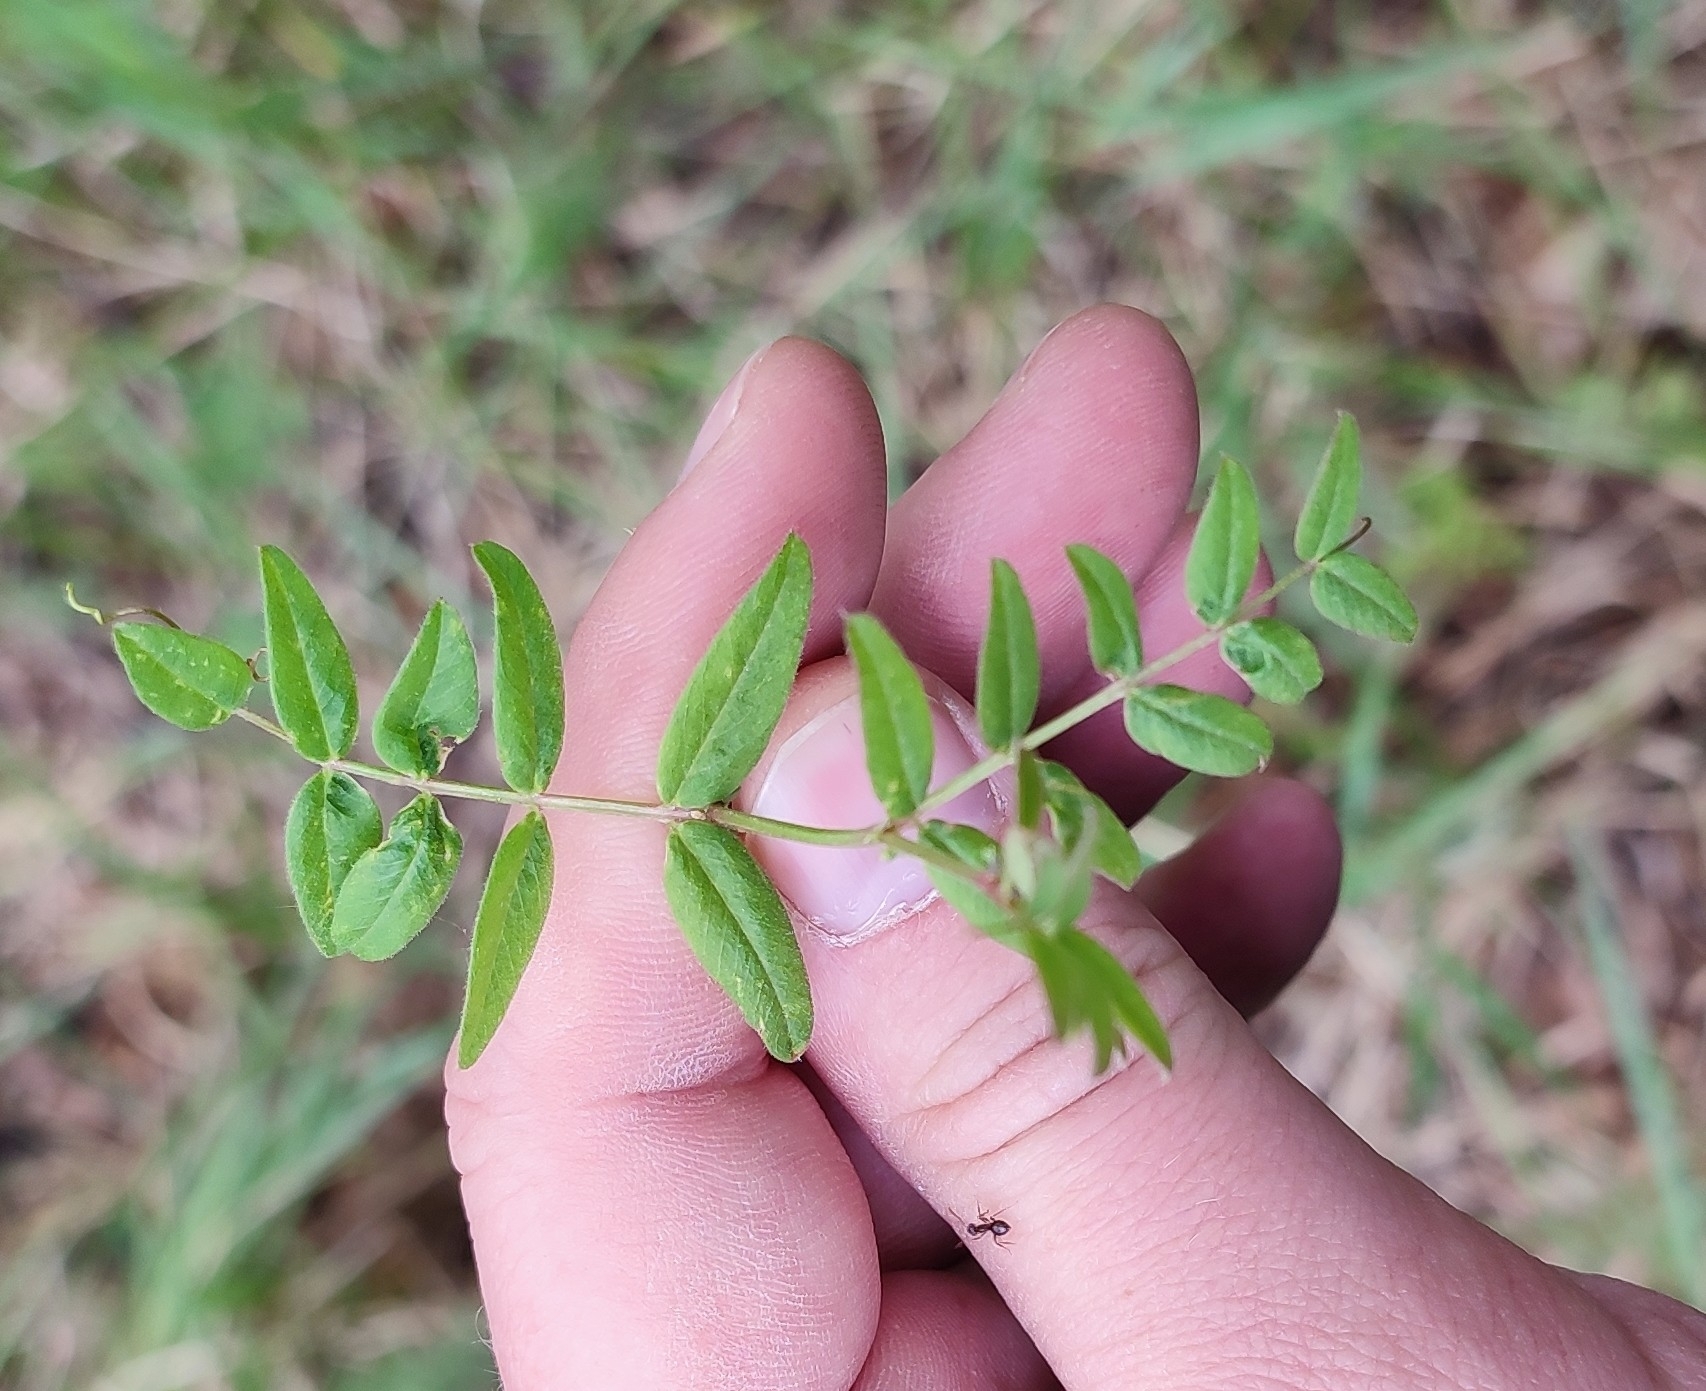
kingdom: Plantae
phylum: Tracheophyta
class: Magnoliopsida
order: Fabales
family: Fabaceae
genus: Vicia
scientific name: Vicia sepium
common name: Bush vetch
